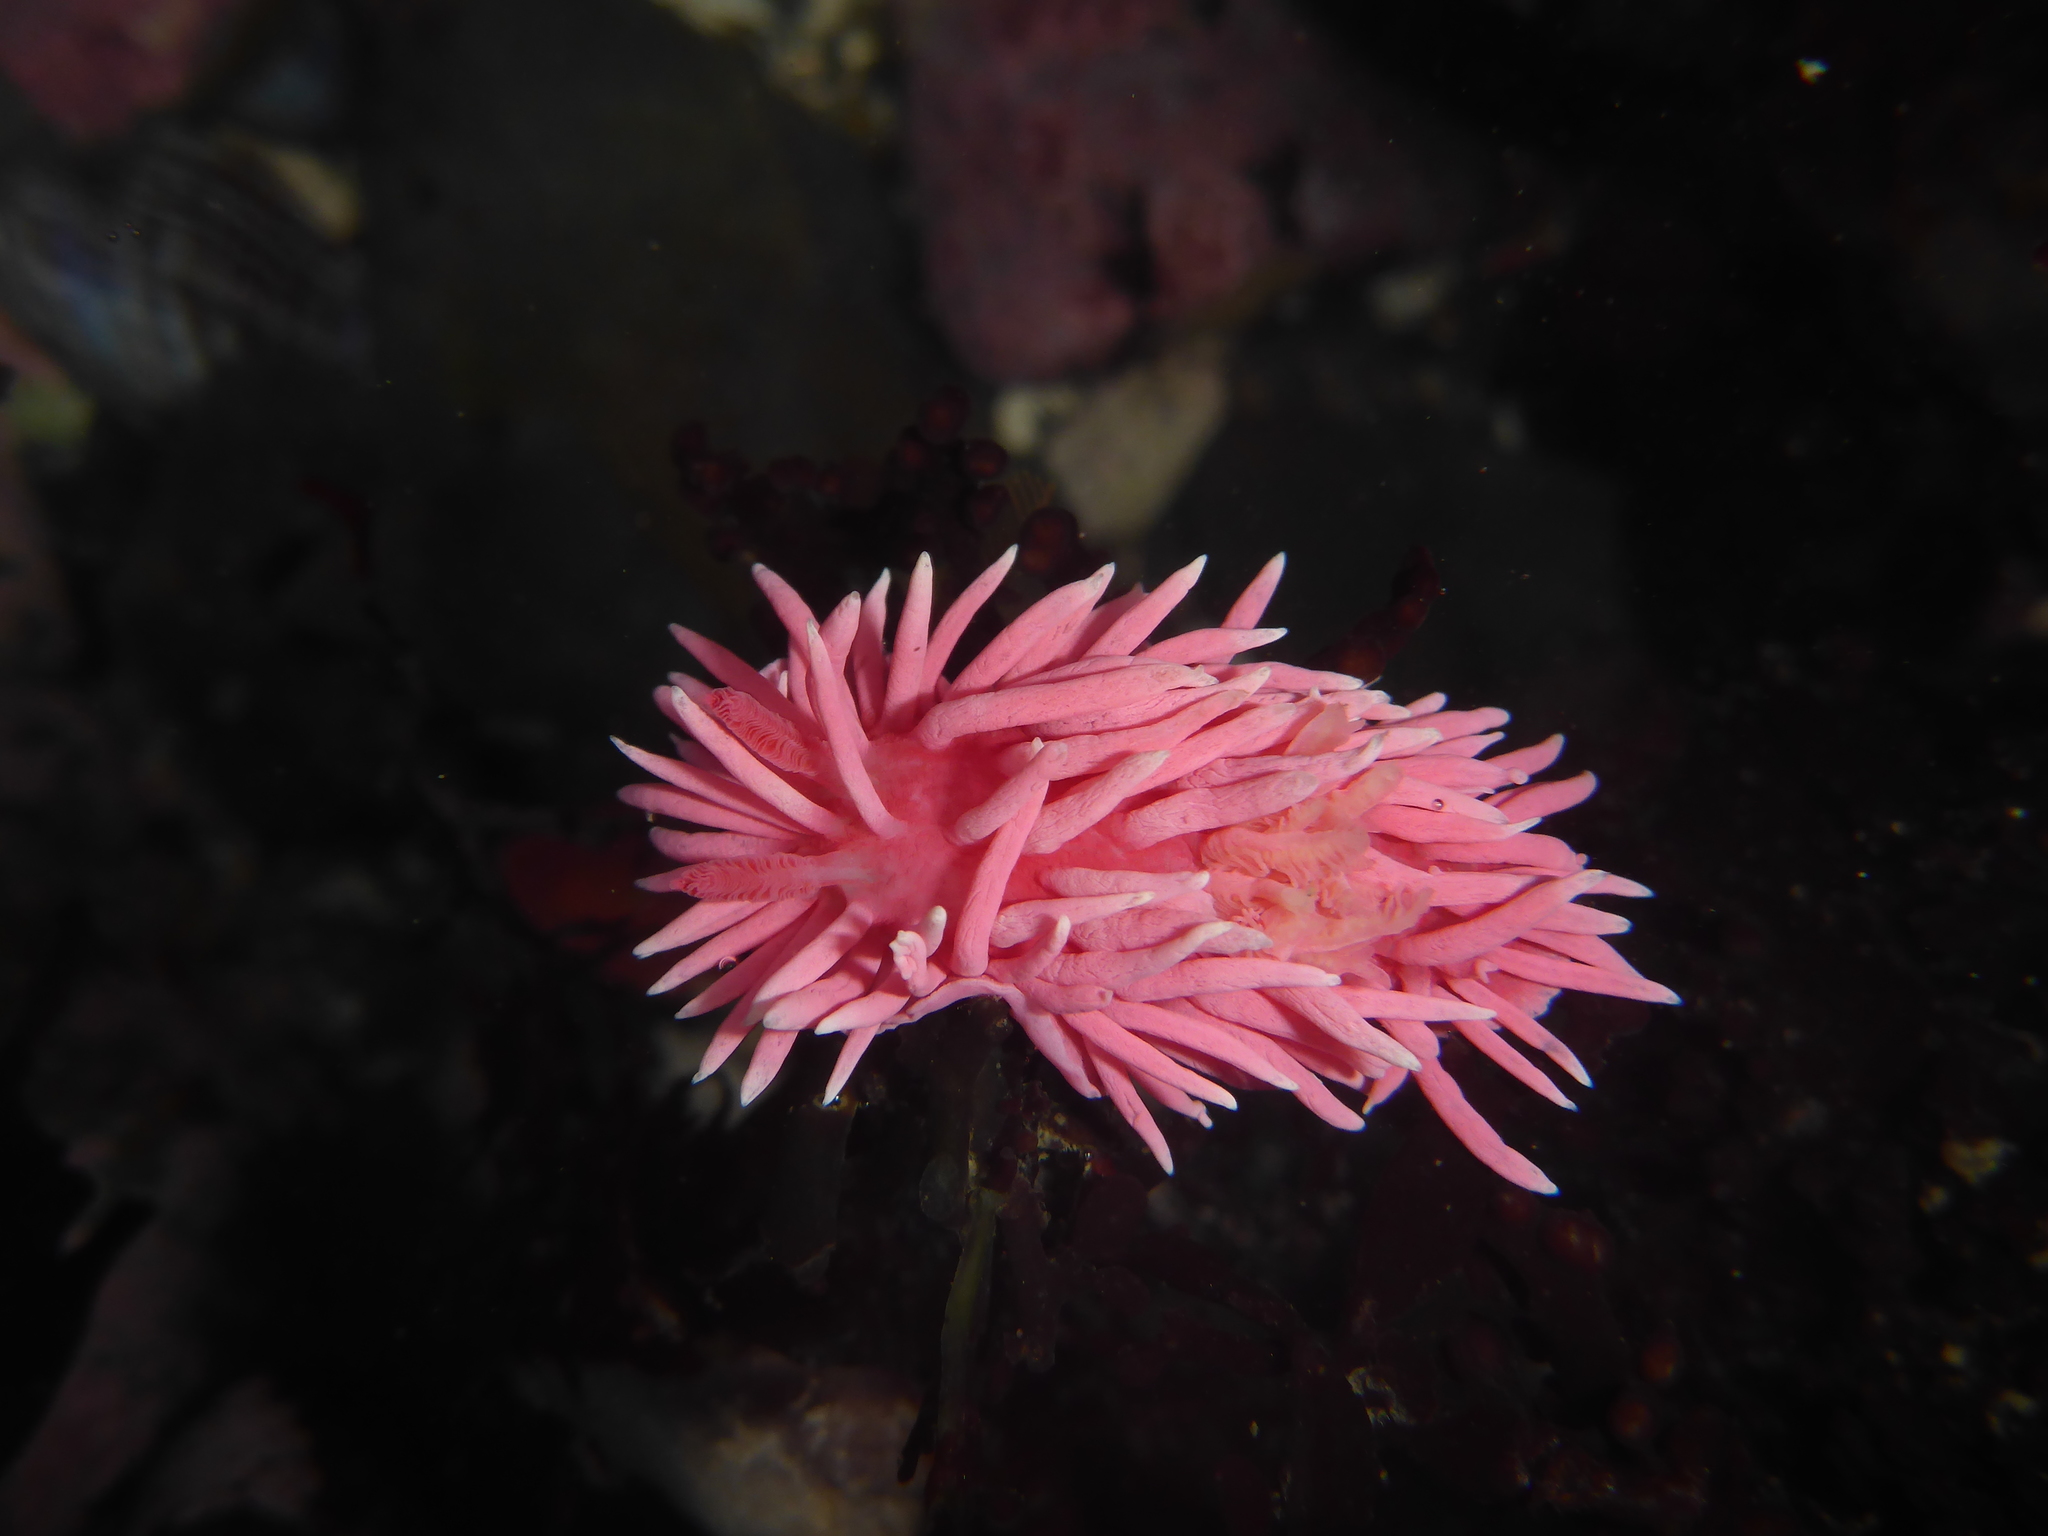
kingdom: Animalia
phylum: Mollusca
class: Gastropoda
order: Nudibranchia
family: Goniodorididae
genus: Okenia
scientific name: Okenia
